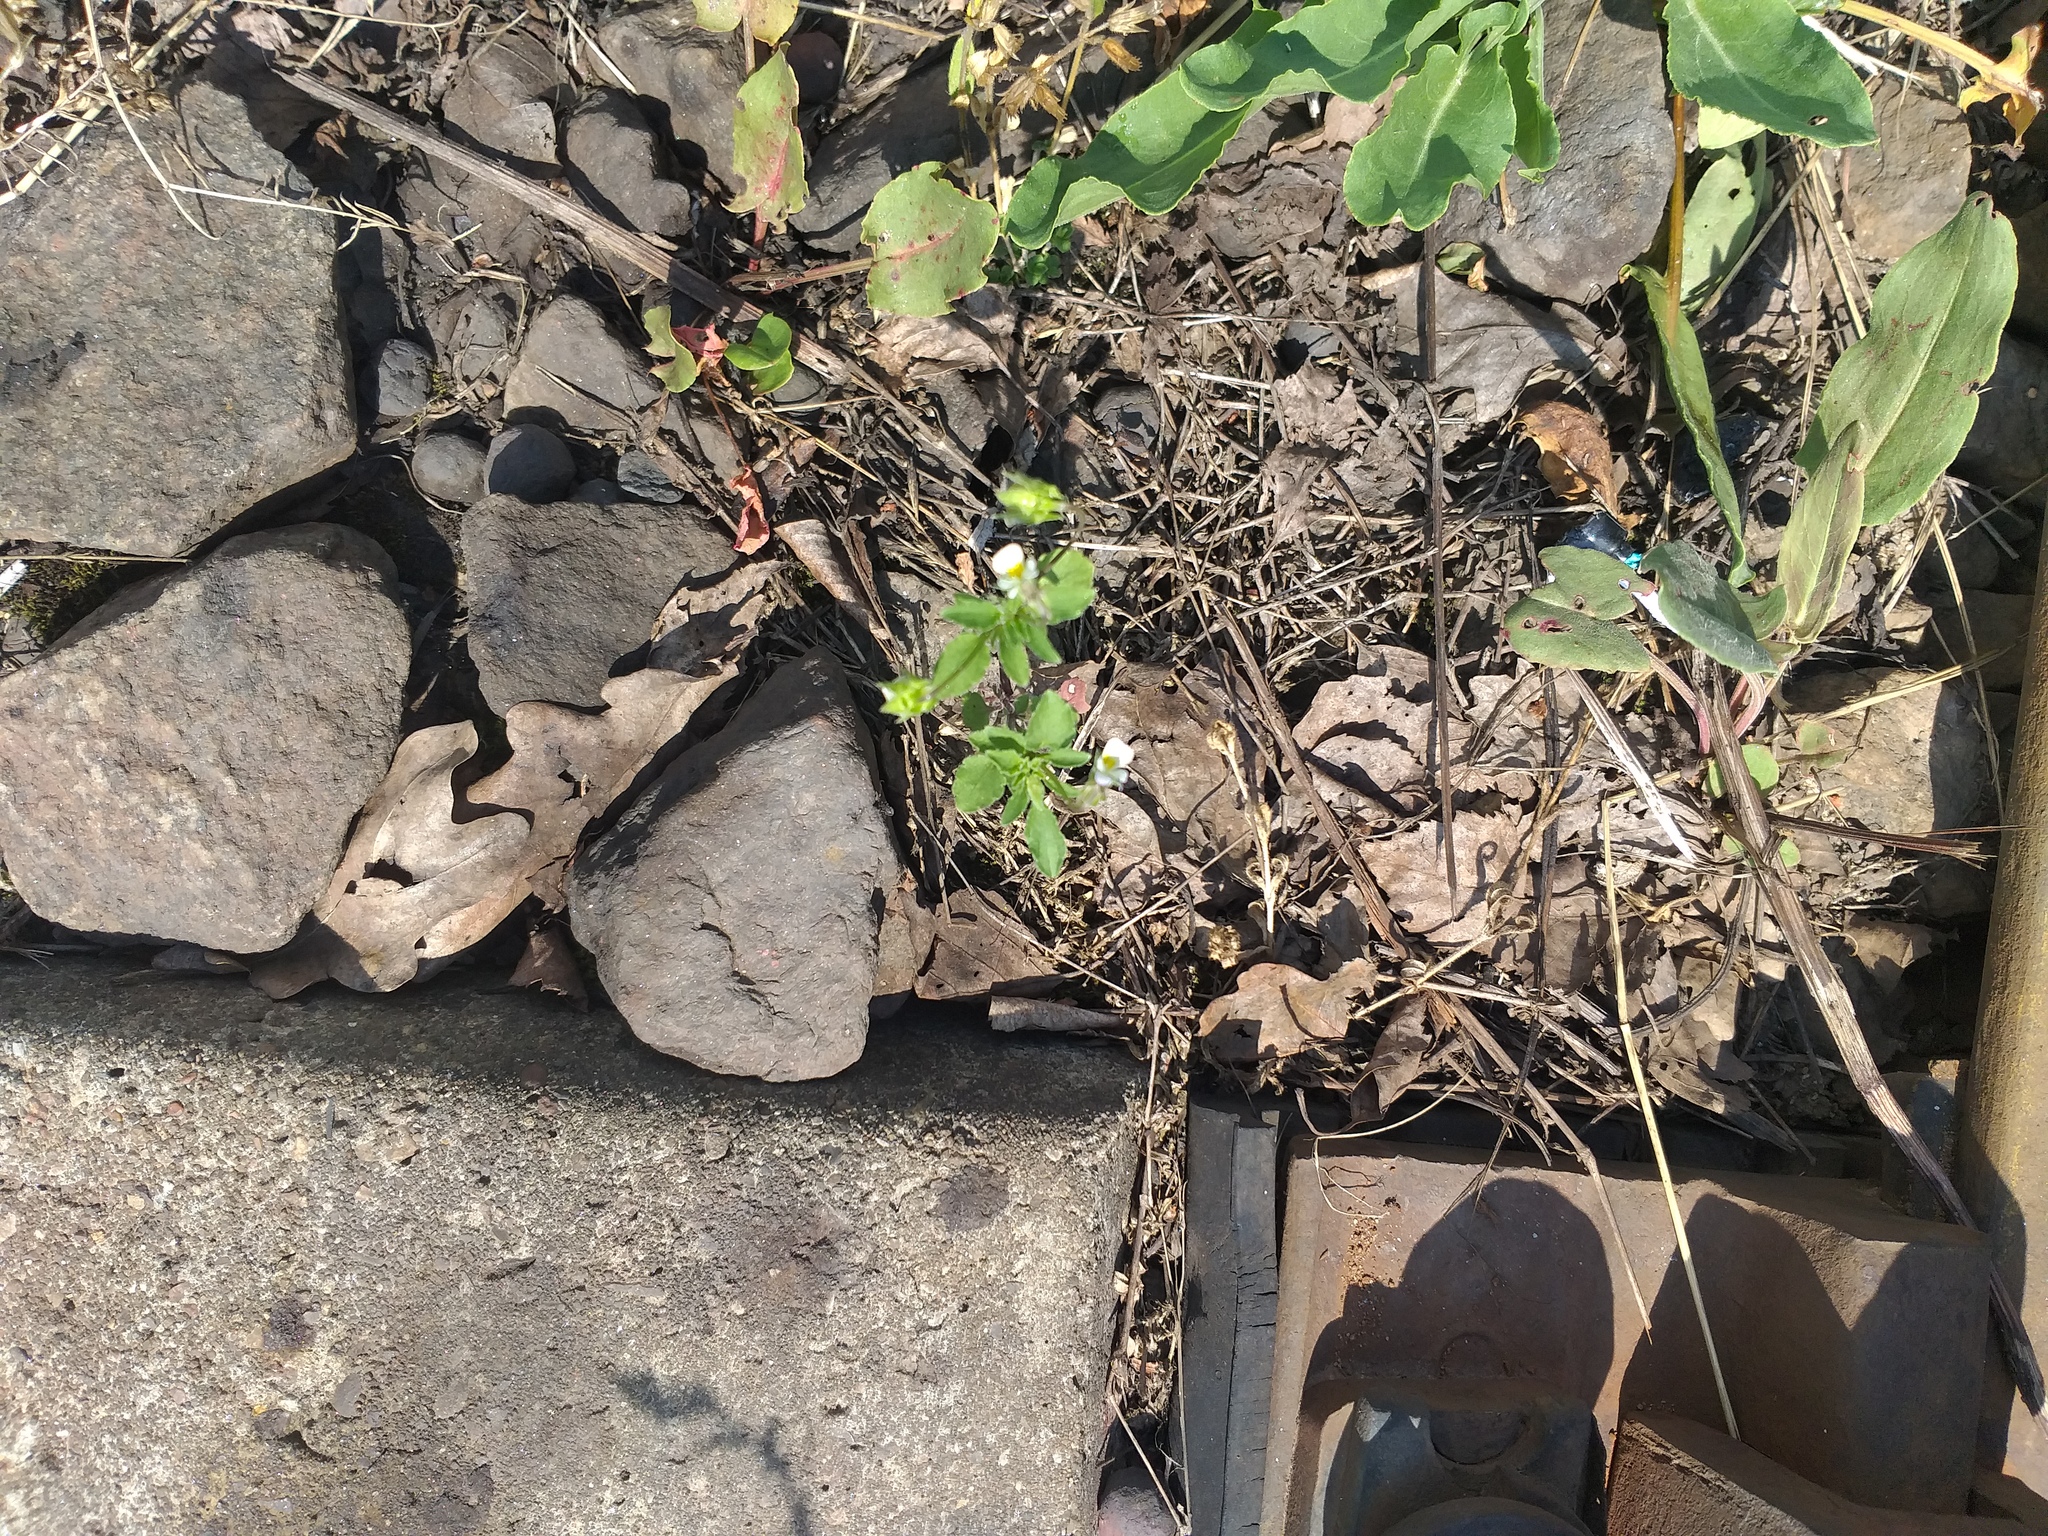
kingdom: Plantae
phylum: Tracheophyta
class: Magnoliopsida
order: Malpighiales
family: Violaceae
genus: Viola
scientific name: Viola arvensis
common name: Field pansy
